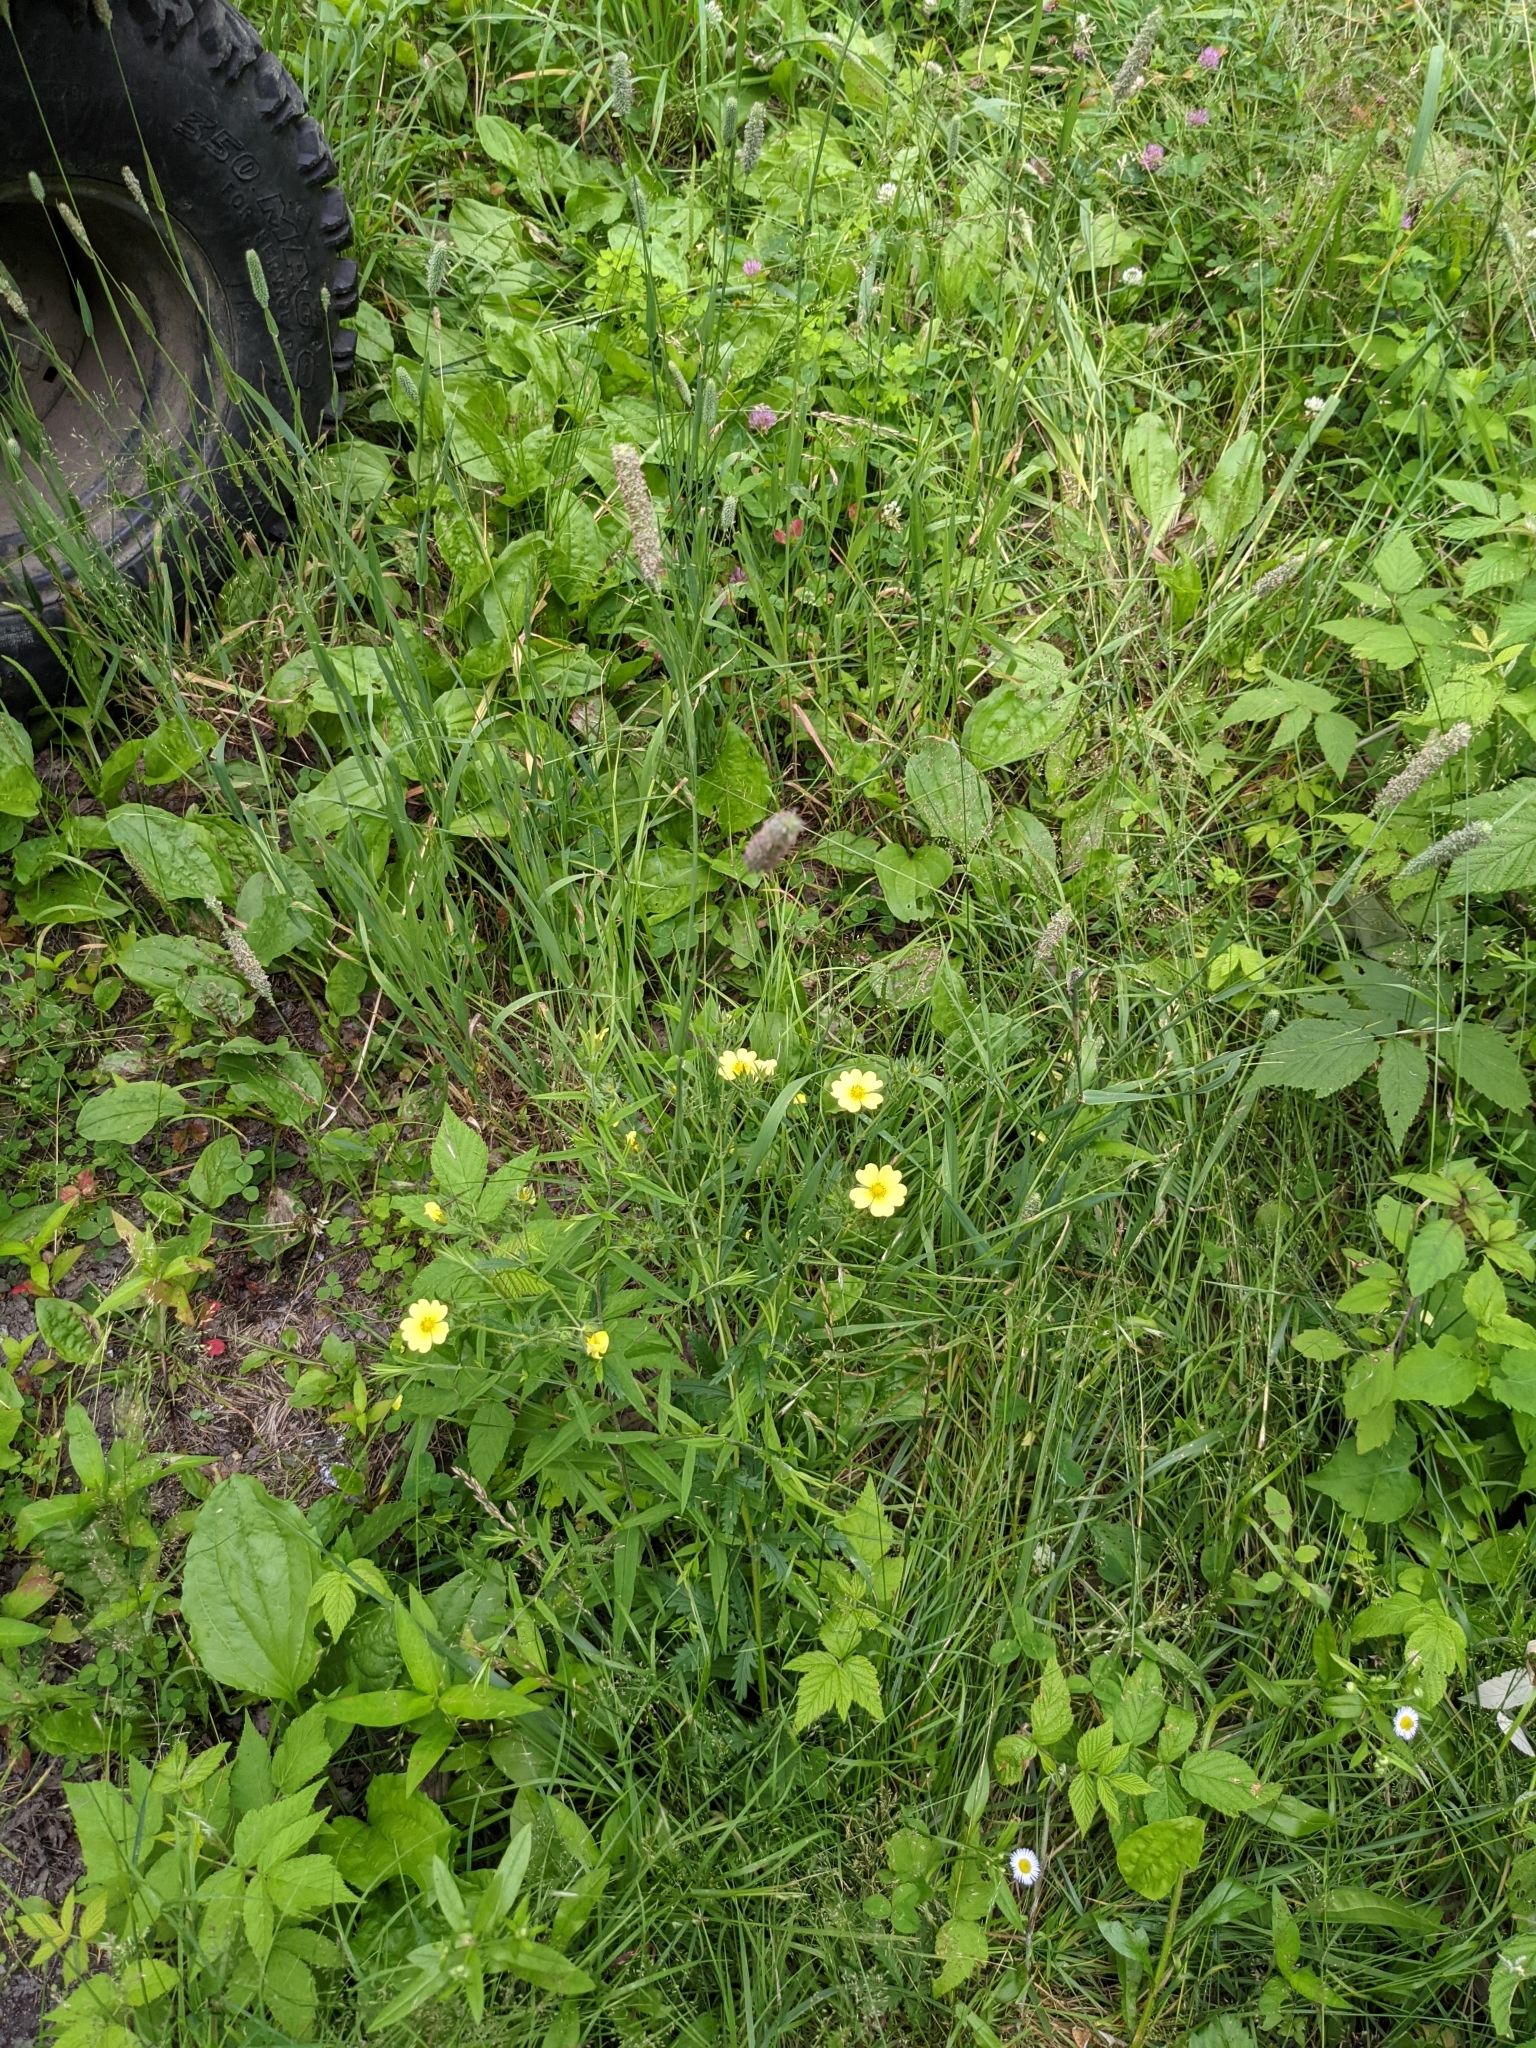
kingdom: Plantae
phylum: Tracheophyta
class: Liliopsida
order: Poales
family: Poaceae
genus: Phleum
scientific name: Phleum pratense
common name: Timothy grass
